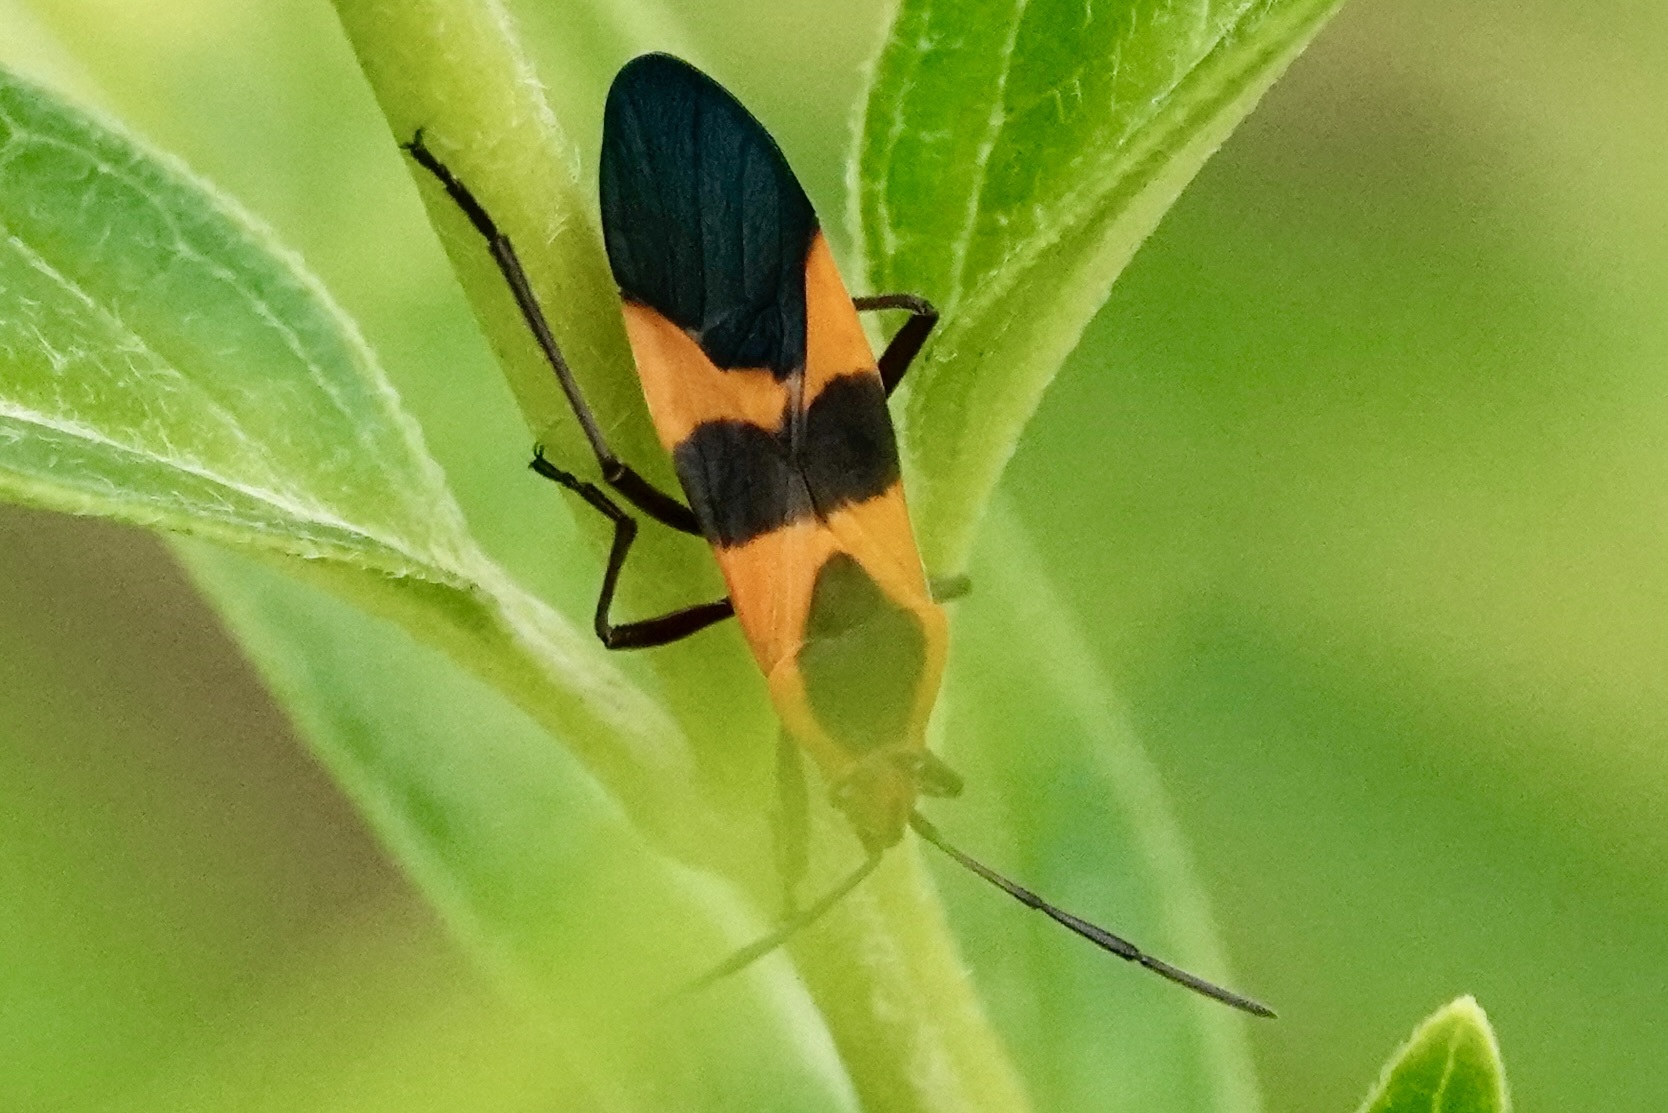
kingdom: Animalia
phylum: Arthropoda
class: Insecta
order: Hemiptera
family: Lygaeidae
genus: Oncopeltus
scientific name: Oncopeltus fasciatus
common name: Large milkweed bug
